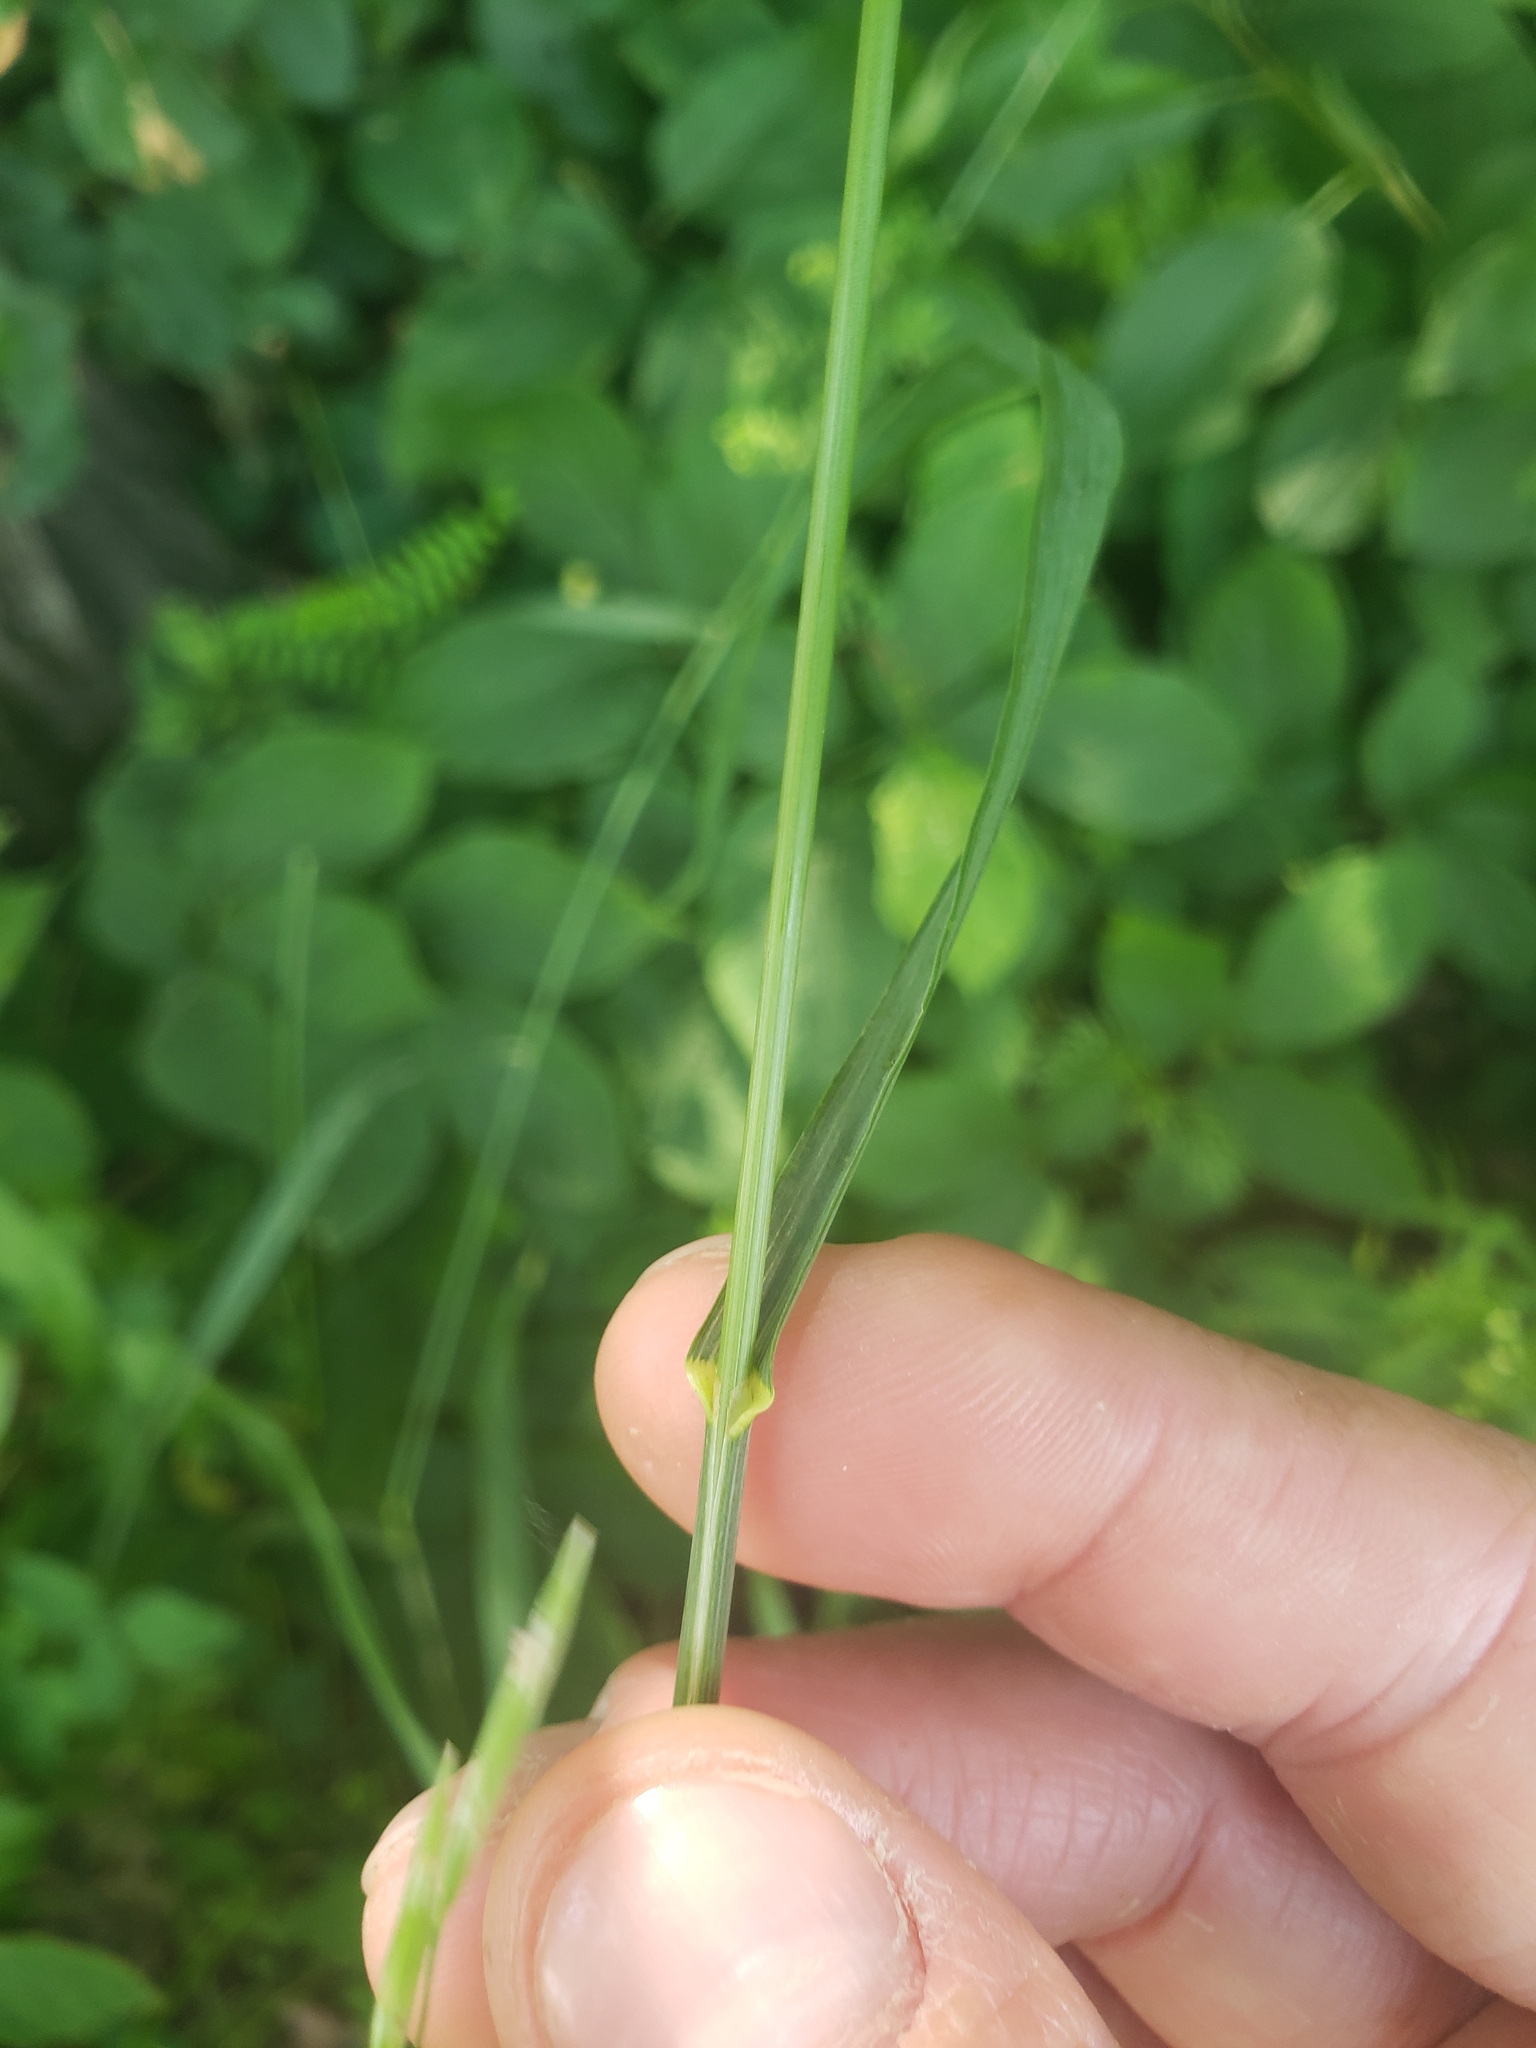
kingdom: Plantae
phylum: Tracheophyta
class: Liliopsida
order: Poales
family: Poaceae
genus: Bromus
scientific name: Bromus inermis
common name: Smooth brome
